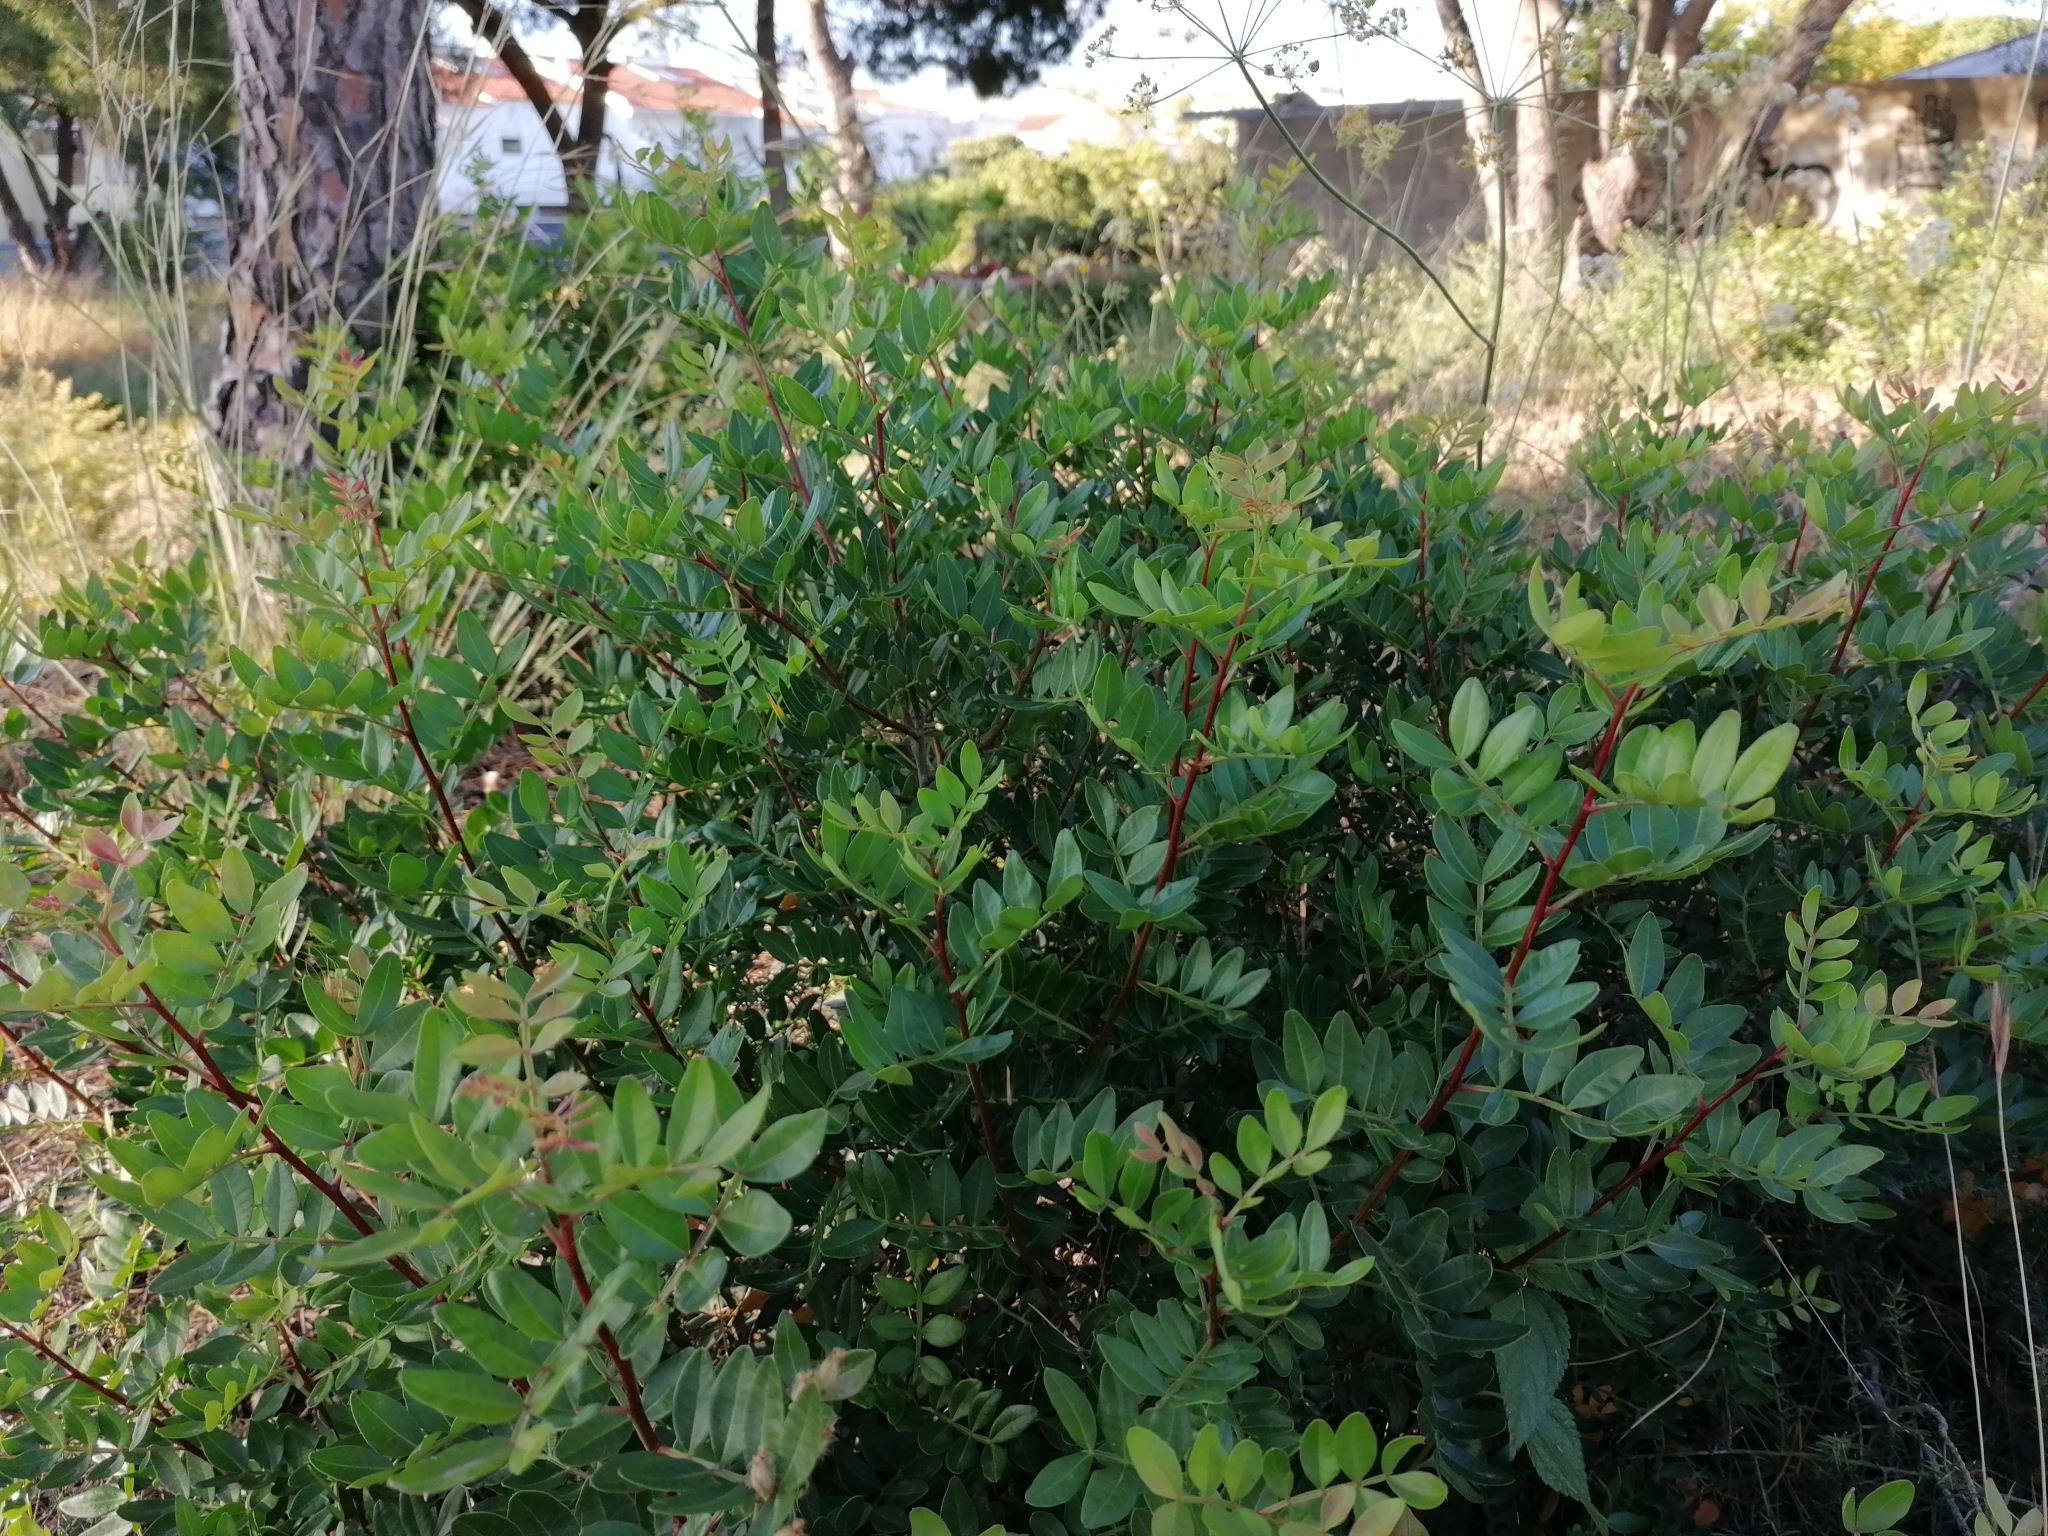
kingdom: Plantae
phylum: Tracheophyta
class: Magnoliopsida
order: Sapindales
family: Anacardiaceae
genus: Pistacia
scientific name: Pistacia lentiscus
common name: Lentisk
